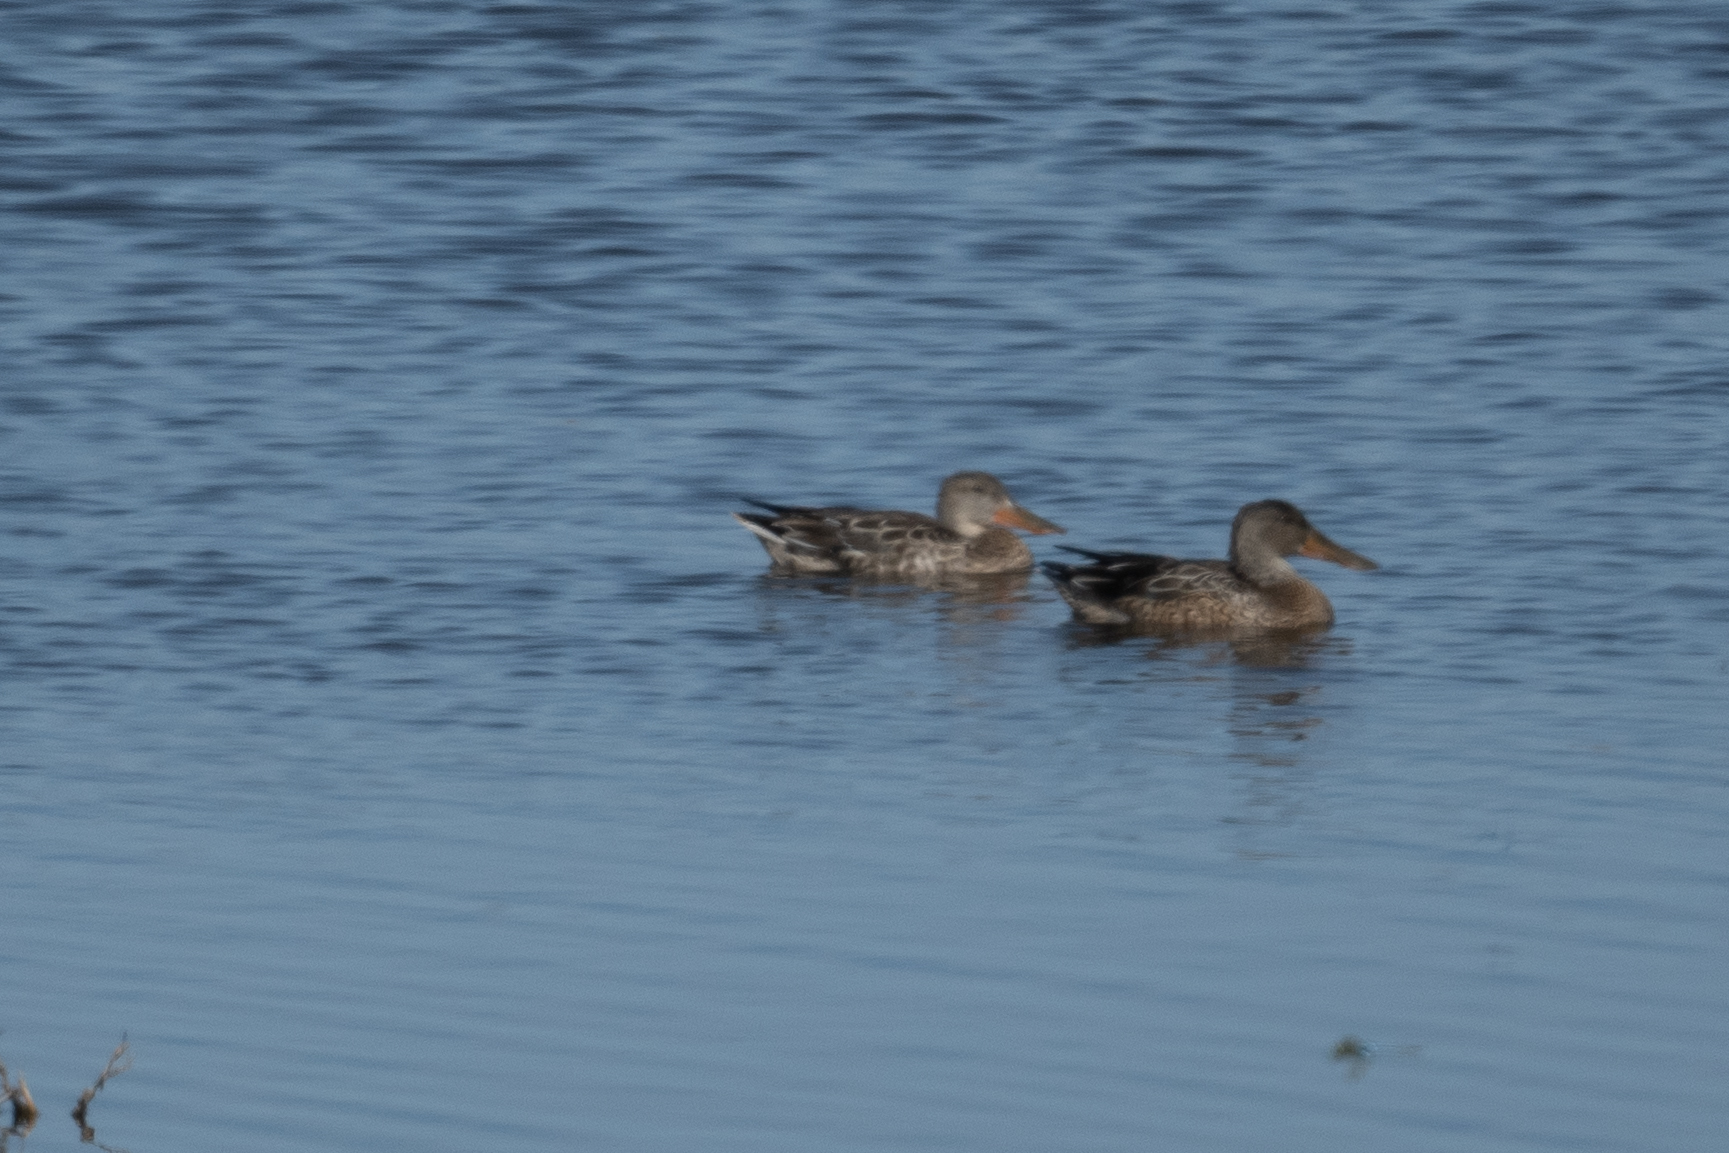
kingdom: Animalia
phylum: Chordata
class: Aves
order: Anseriformes
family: Anatidae
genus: Spatula
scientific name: Spatula clypeata
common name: Northern shoveler
